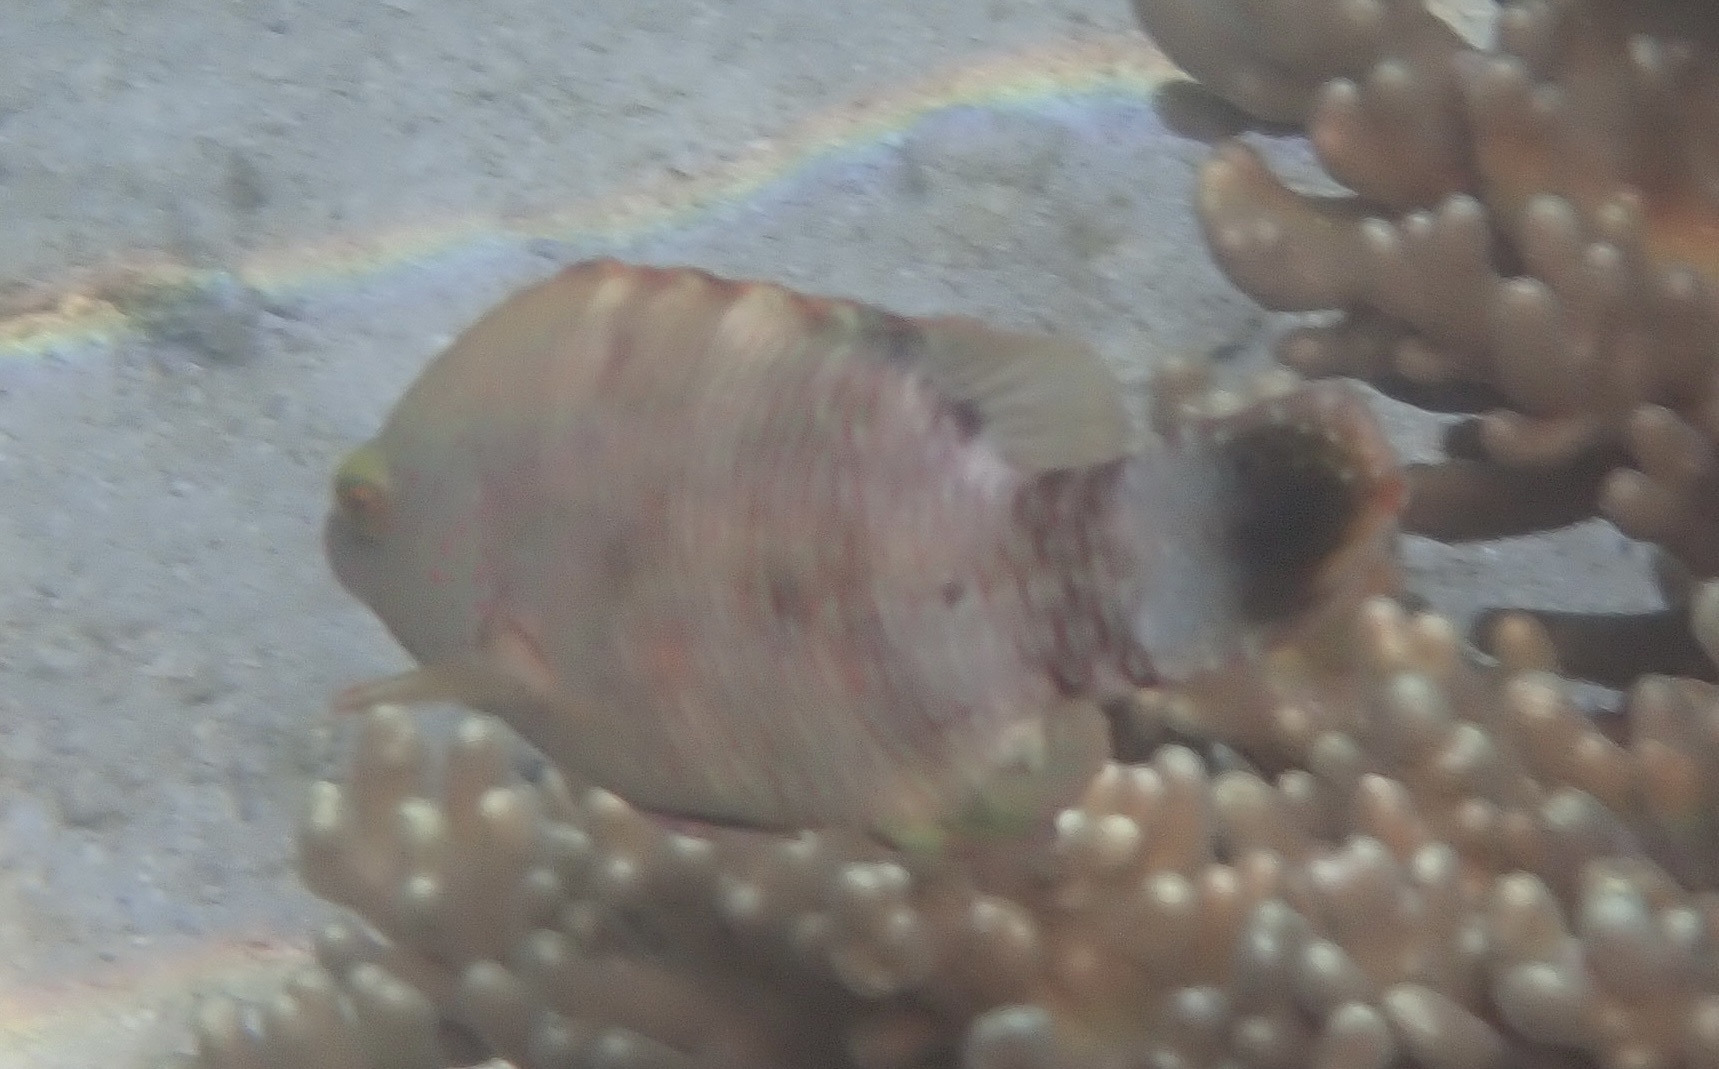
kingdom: Animalia
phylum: Chordata
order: Perciformes
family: Labridae
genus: Cheilinus
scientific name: Cheilinus chlorourus
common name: Floral wrasse
